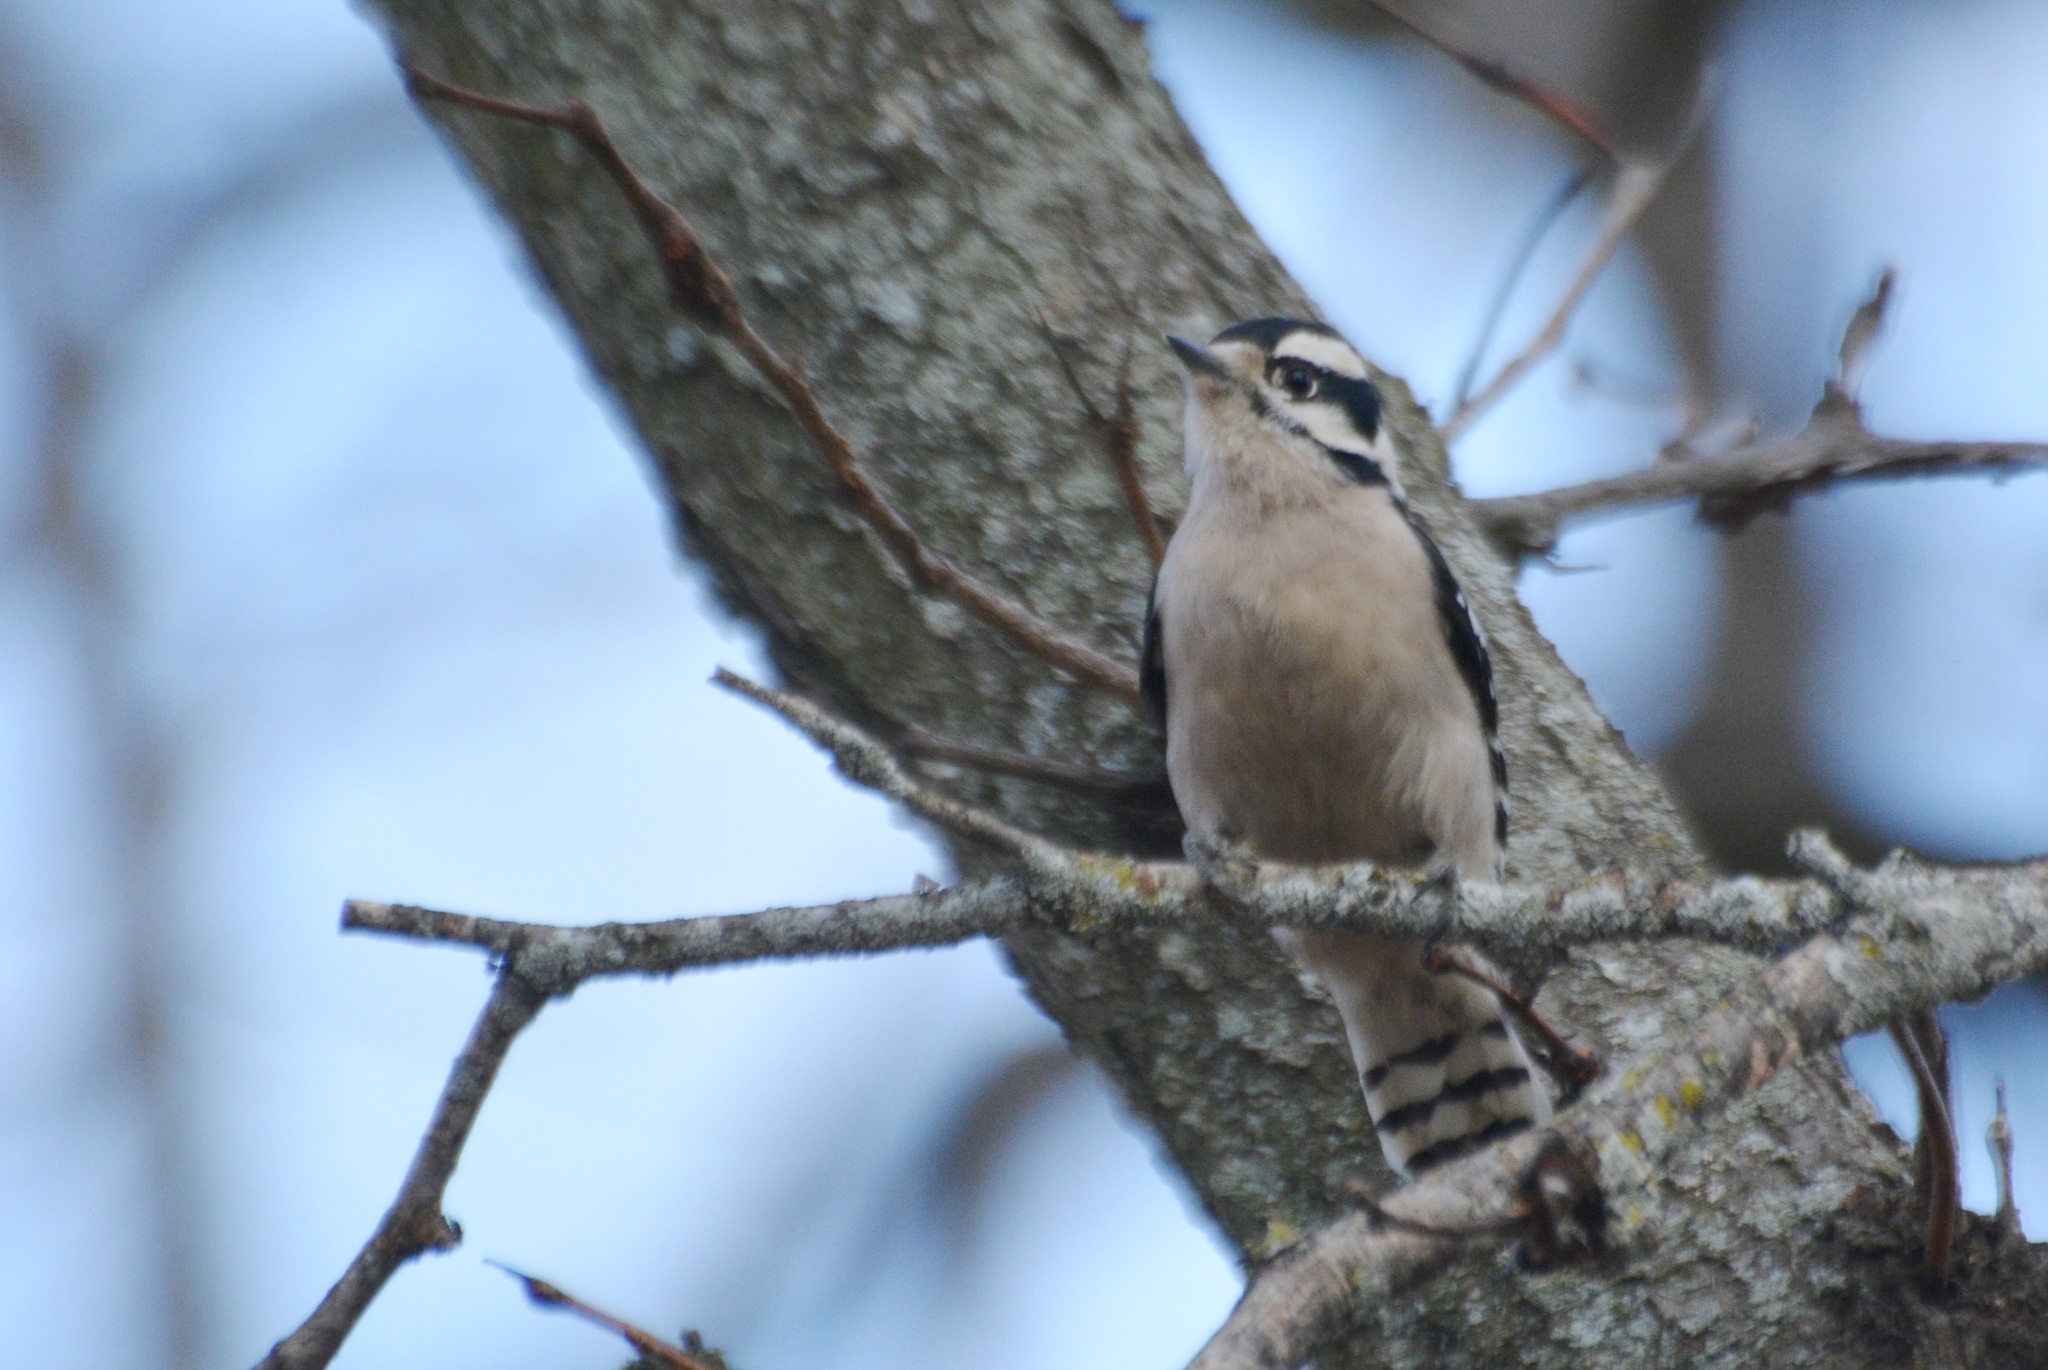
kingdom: Animalia
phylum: Chordata
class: Aves
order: Piciformes
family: Picidae
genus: Dryobates
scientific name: Dryobates pubescens
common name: Downy woodpecker
